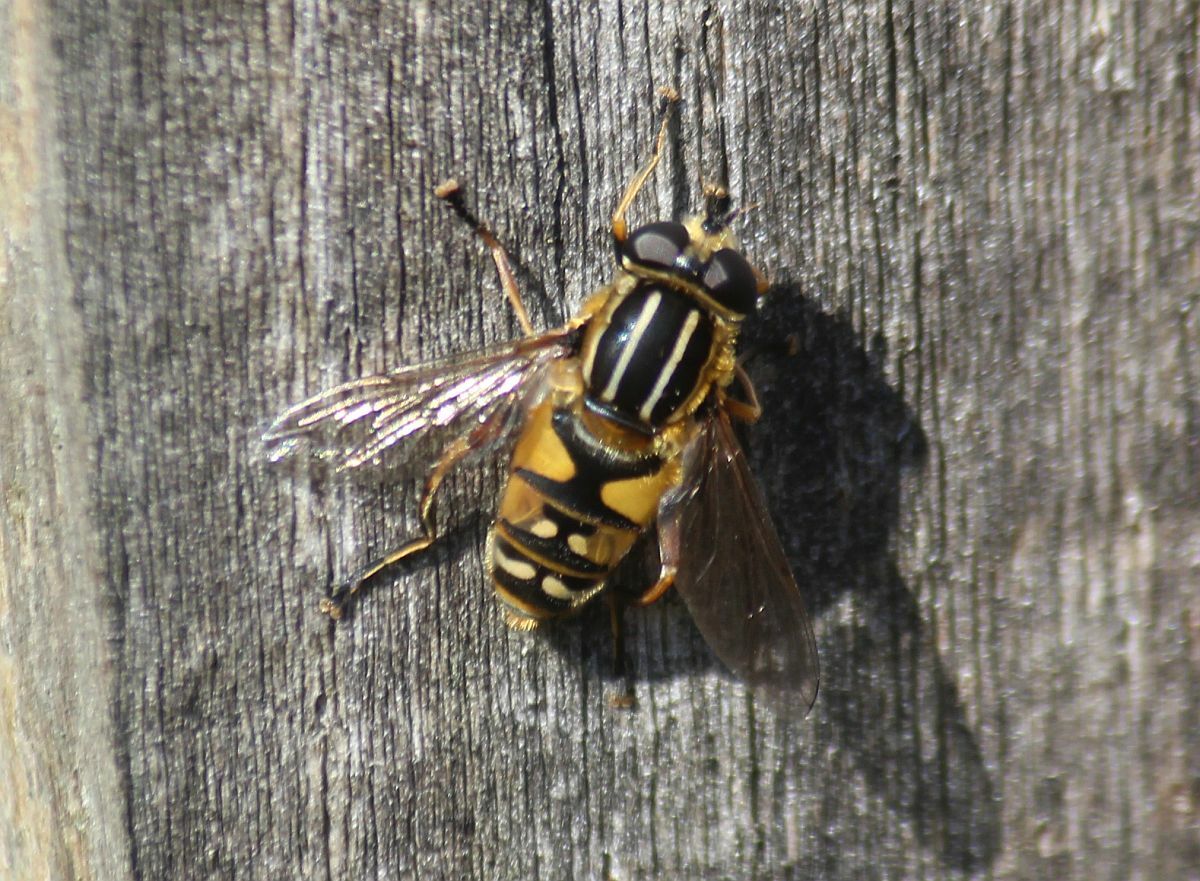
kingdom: Animalia
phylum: Arthropoda
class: Insecta
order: Diptera
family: Syrphidae
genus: Helophilus
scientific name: Helophilus pendulus
